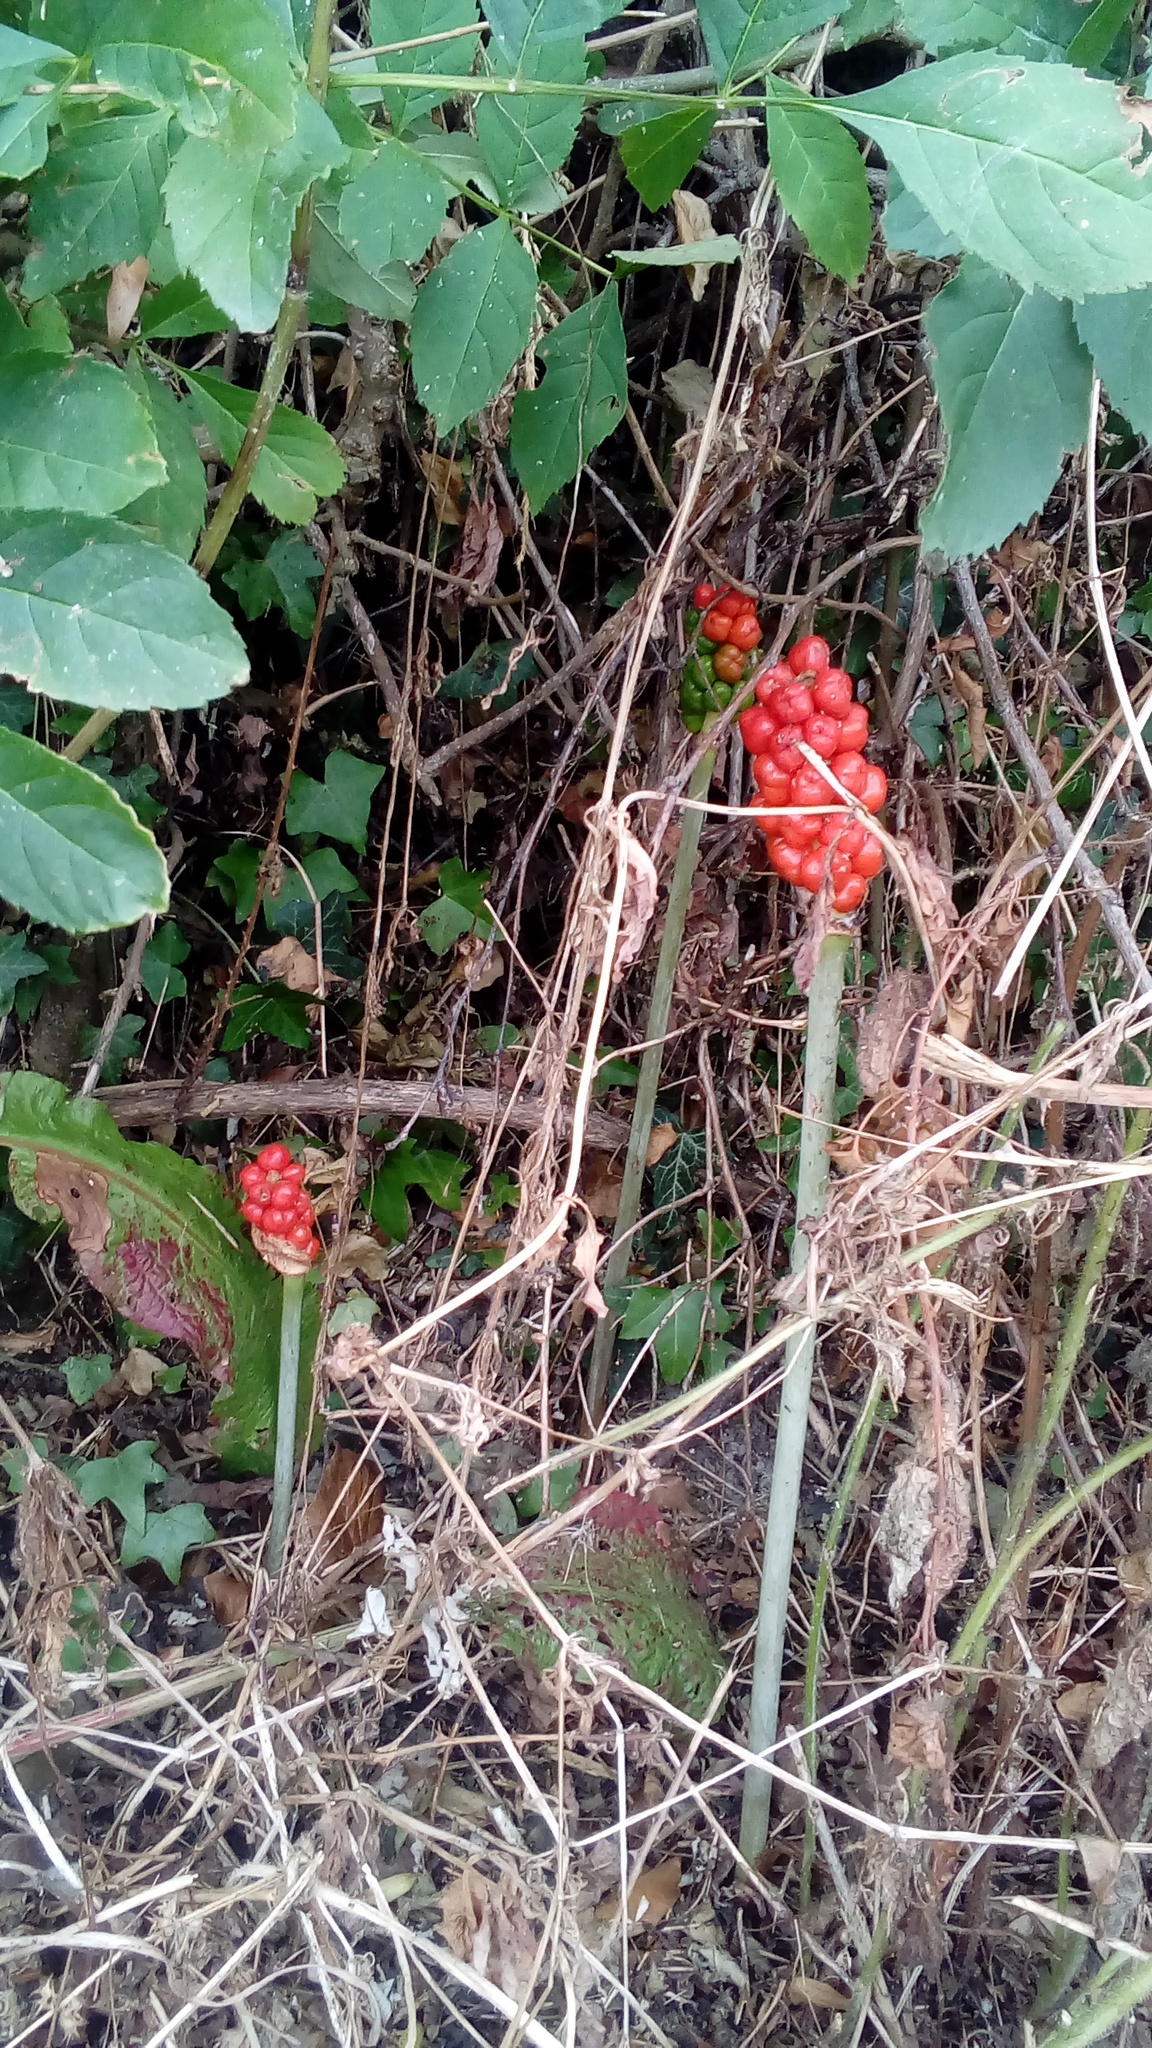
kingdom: Plantae
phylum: Tracheophyta
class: Liliopsida
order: Alismatales
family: Araceae
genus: Arum
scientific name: Arum maculatum
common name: Lords-and-ladies
